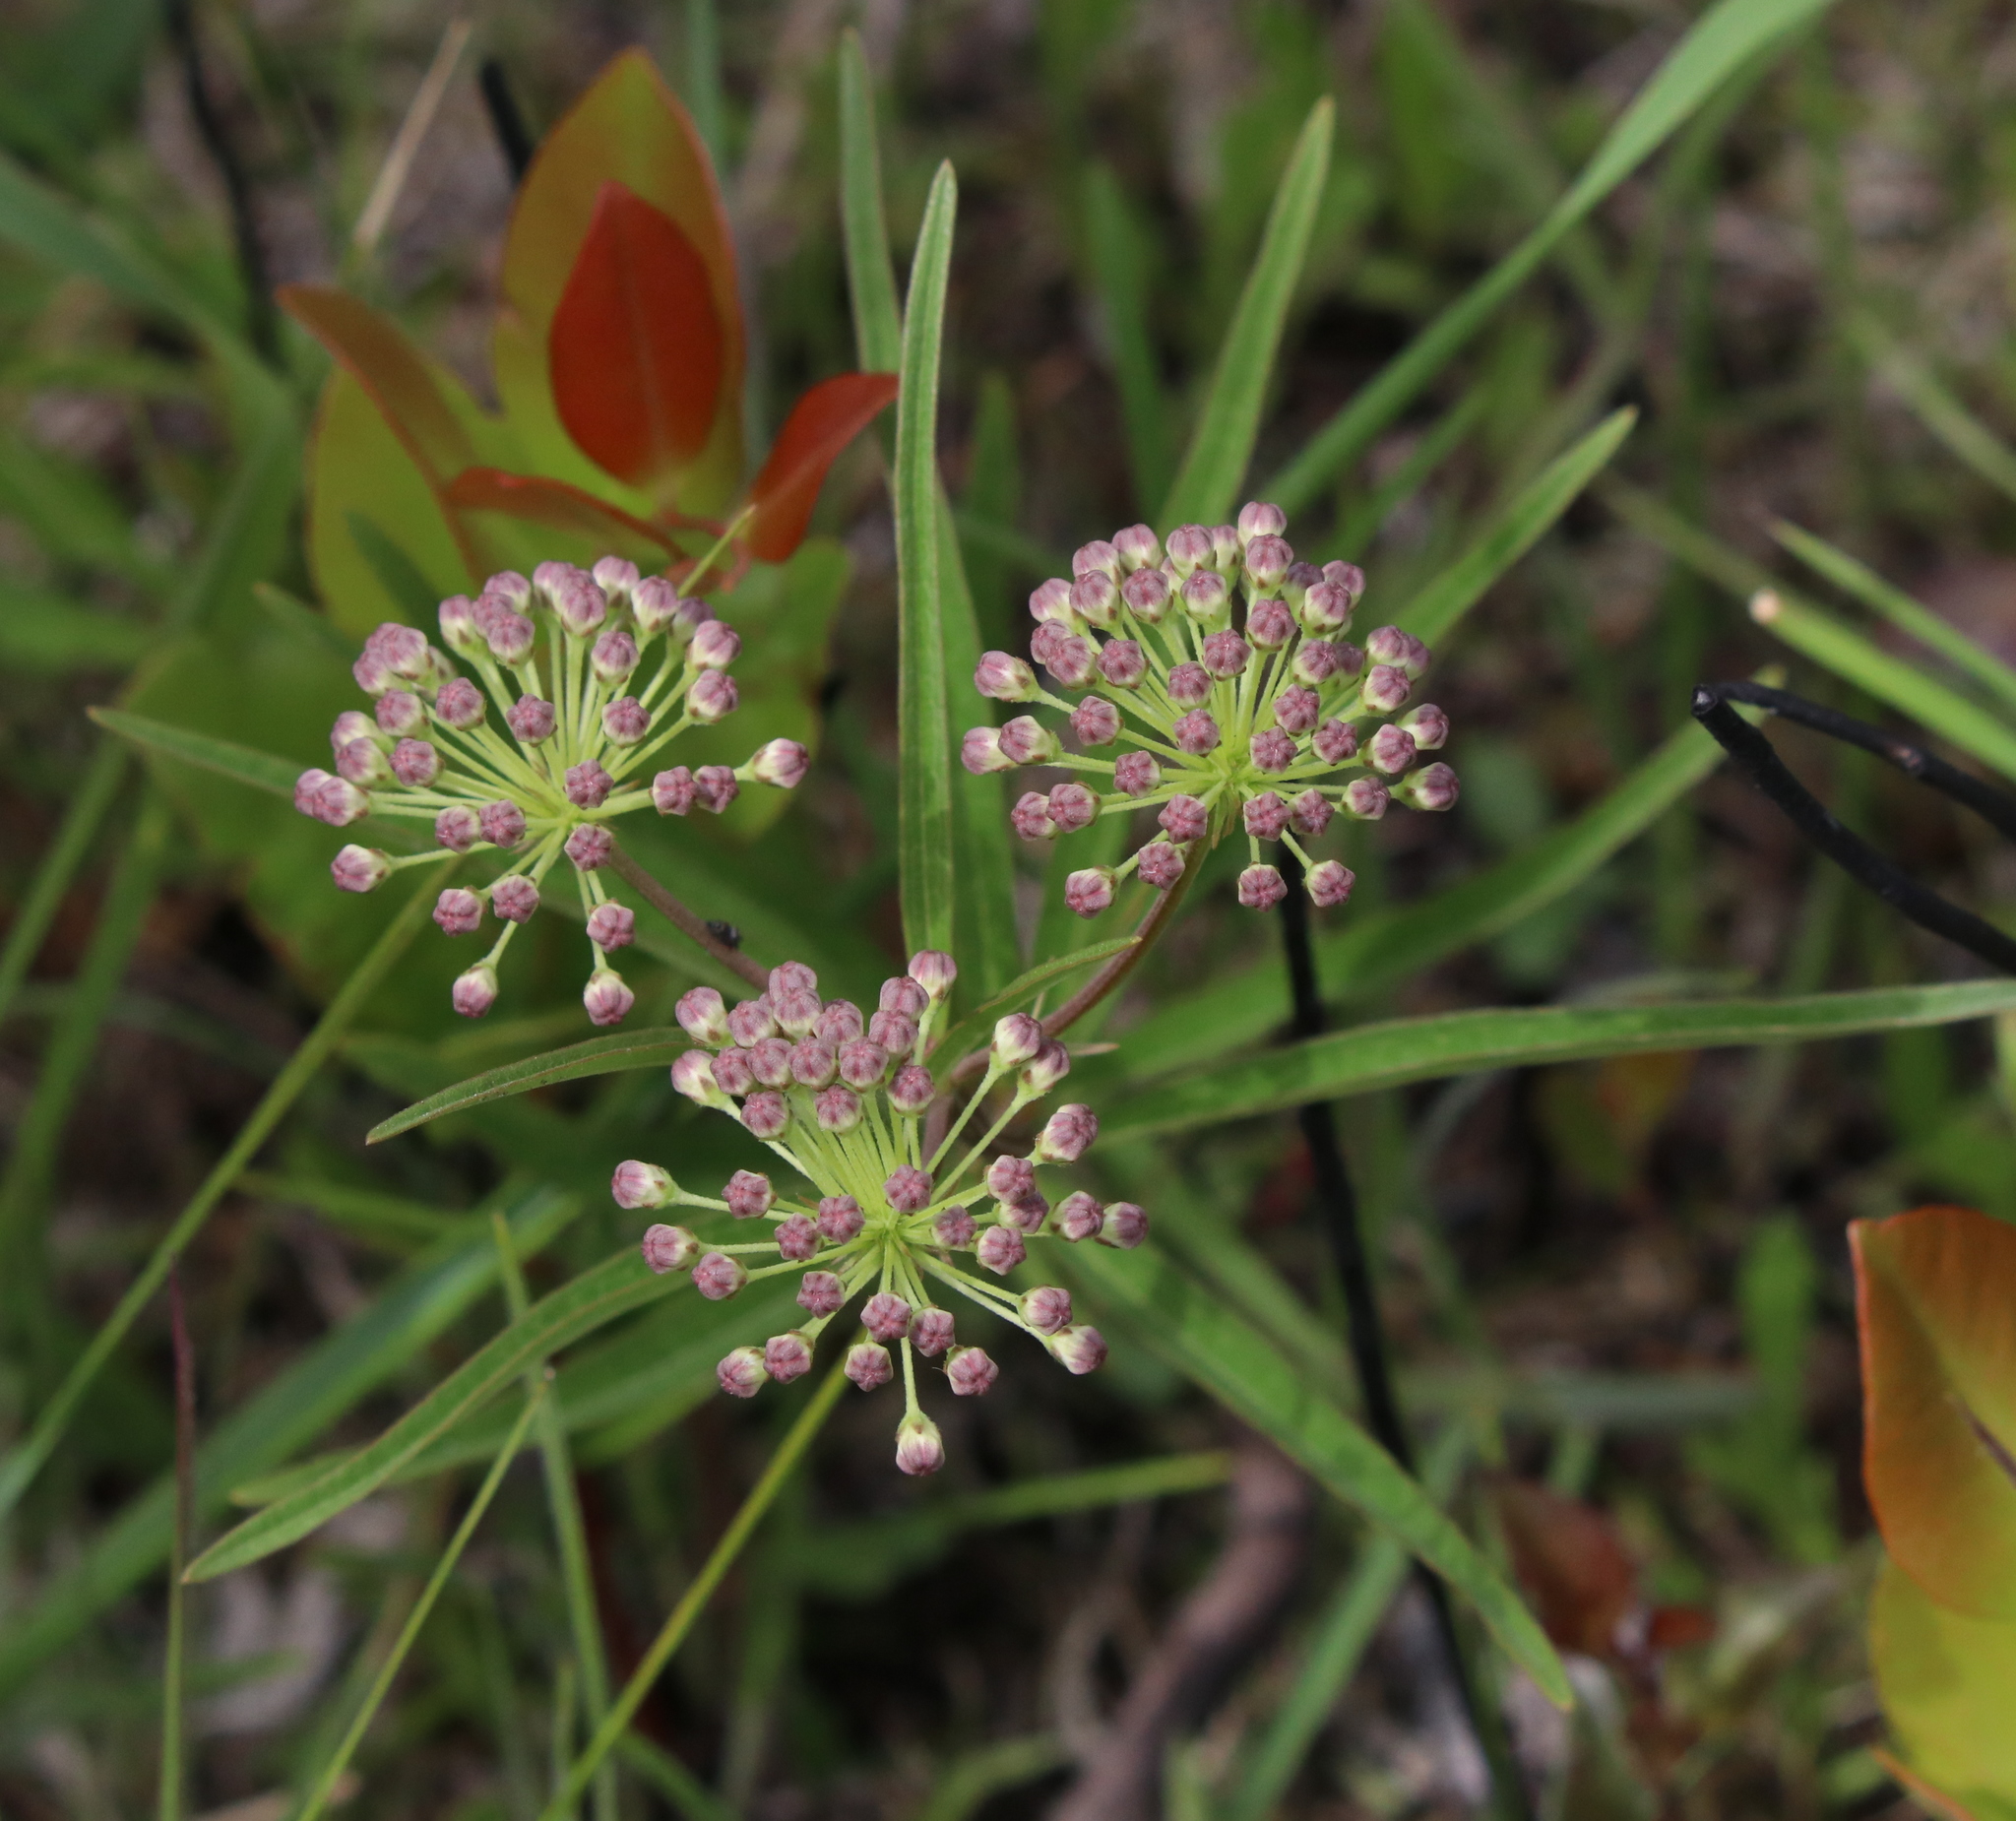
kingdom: Plantae
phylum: Tracheophyta
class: Magnoliopsida
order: Gentianales
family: Apocynaceae
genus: Asclepias
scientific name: Asclepias longifolia
